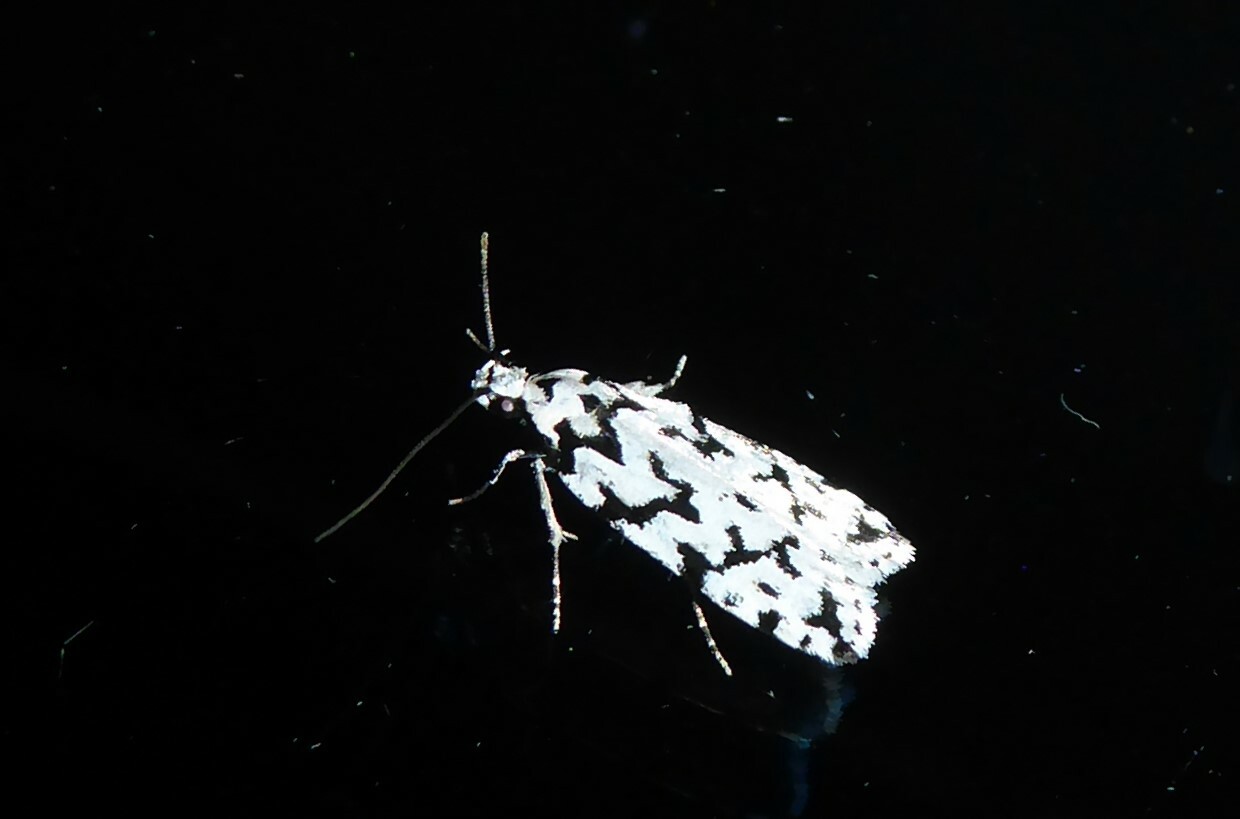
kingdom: Animalia
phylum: Arthropoda
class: Insecta
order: Lepidoptera
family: Oecophoridae
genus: Izatha
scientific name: Izatha katadiktya
